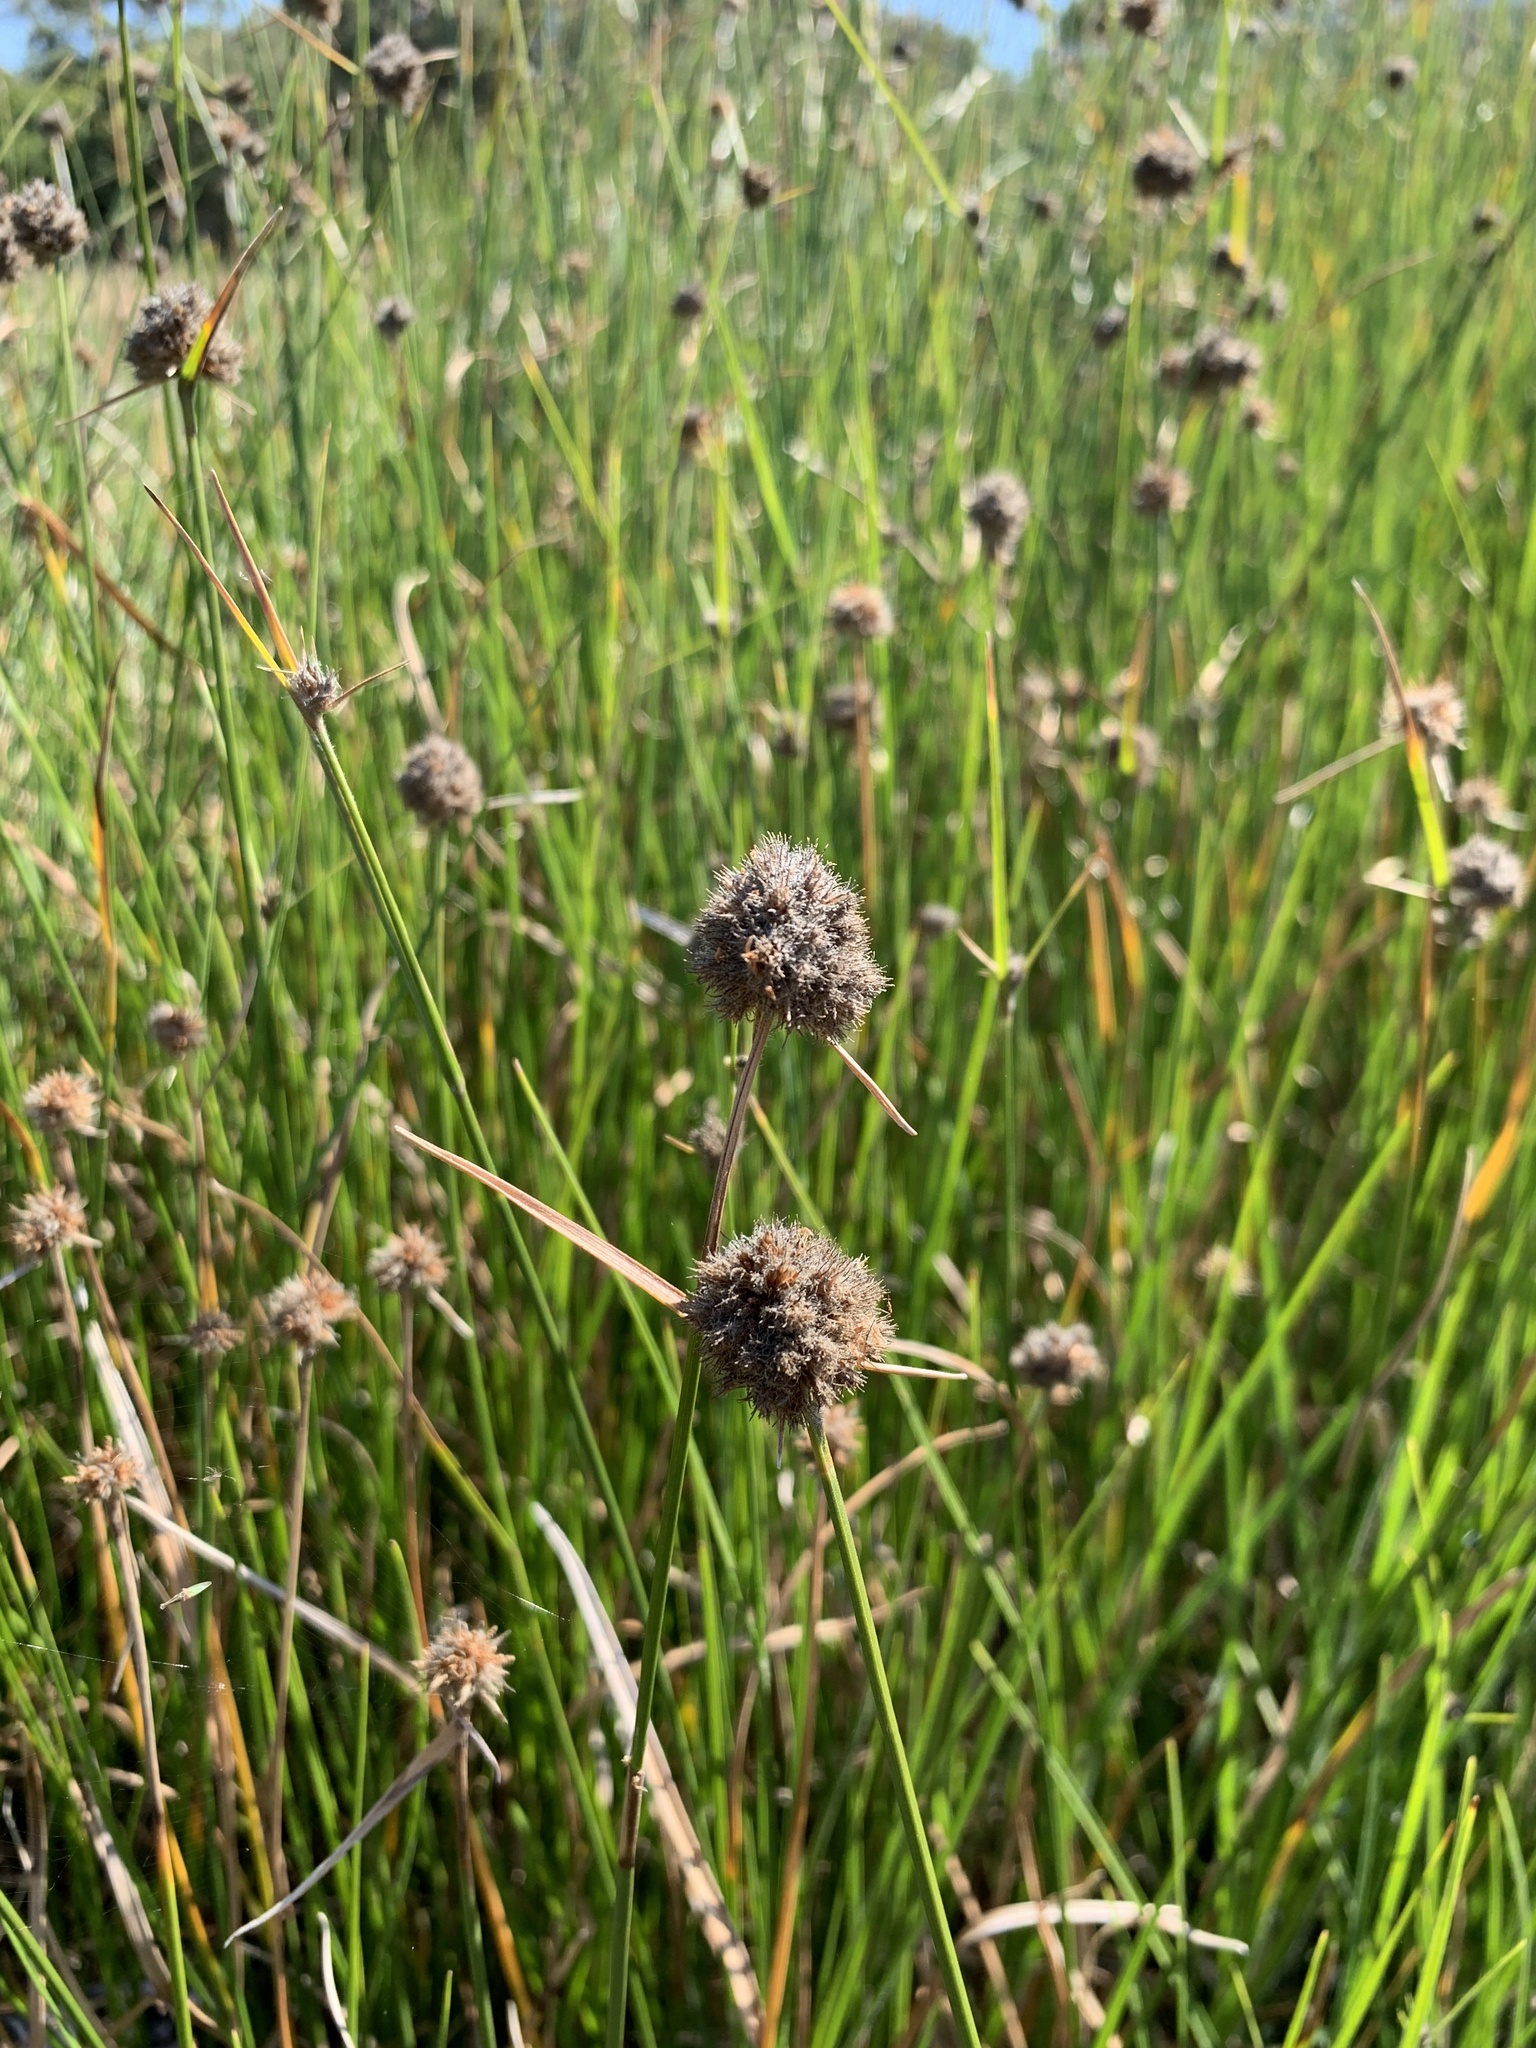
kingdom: Plantae
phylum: Tracheophyta
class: Liliopsida
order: Poales
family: Cyperaceae
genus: Fuirena
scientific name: Fuirena hirsuta
